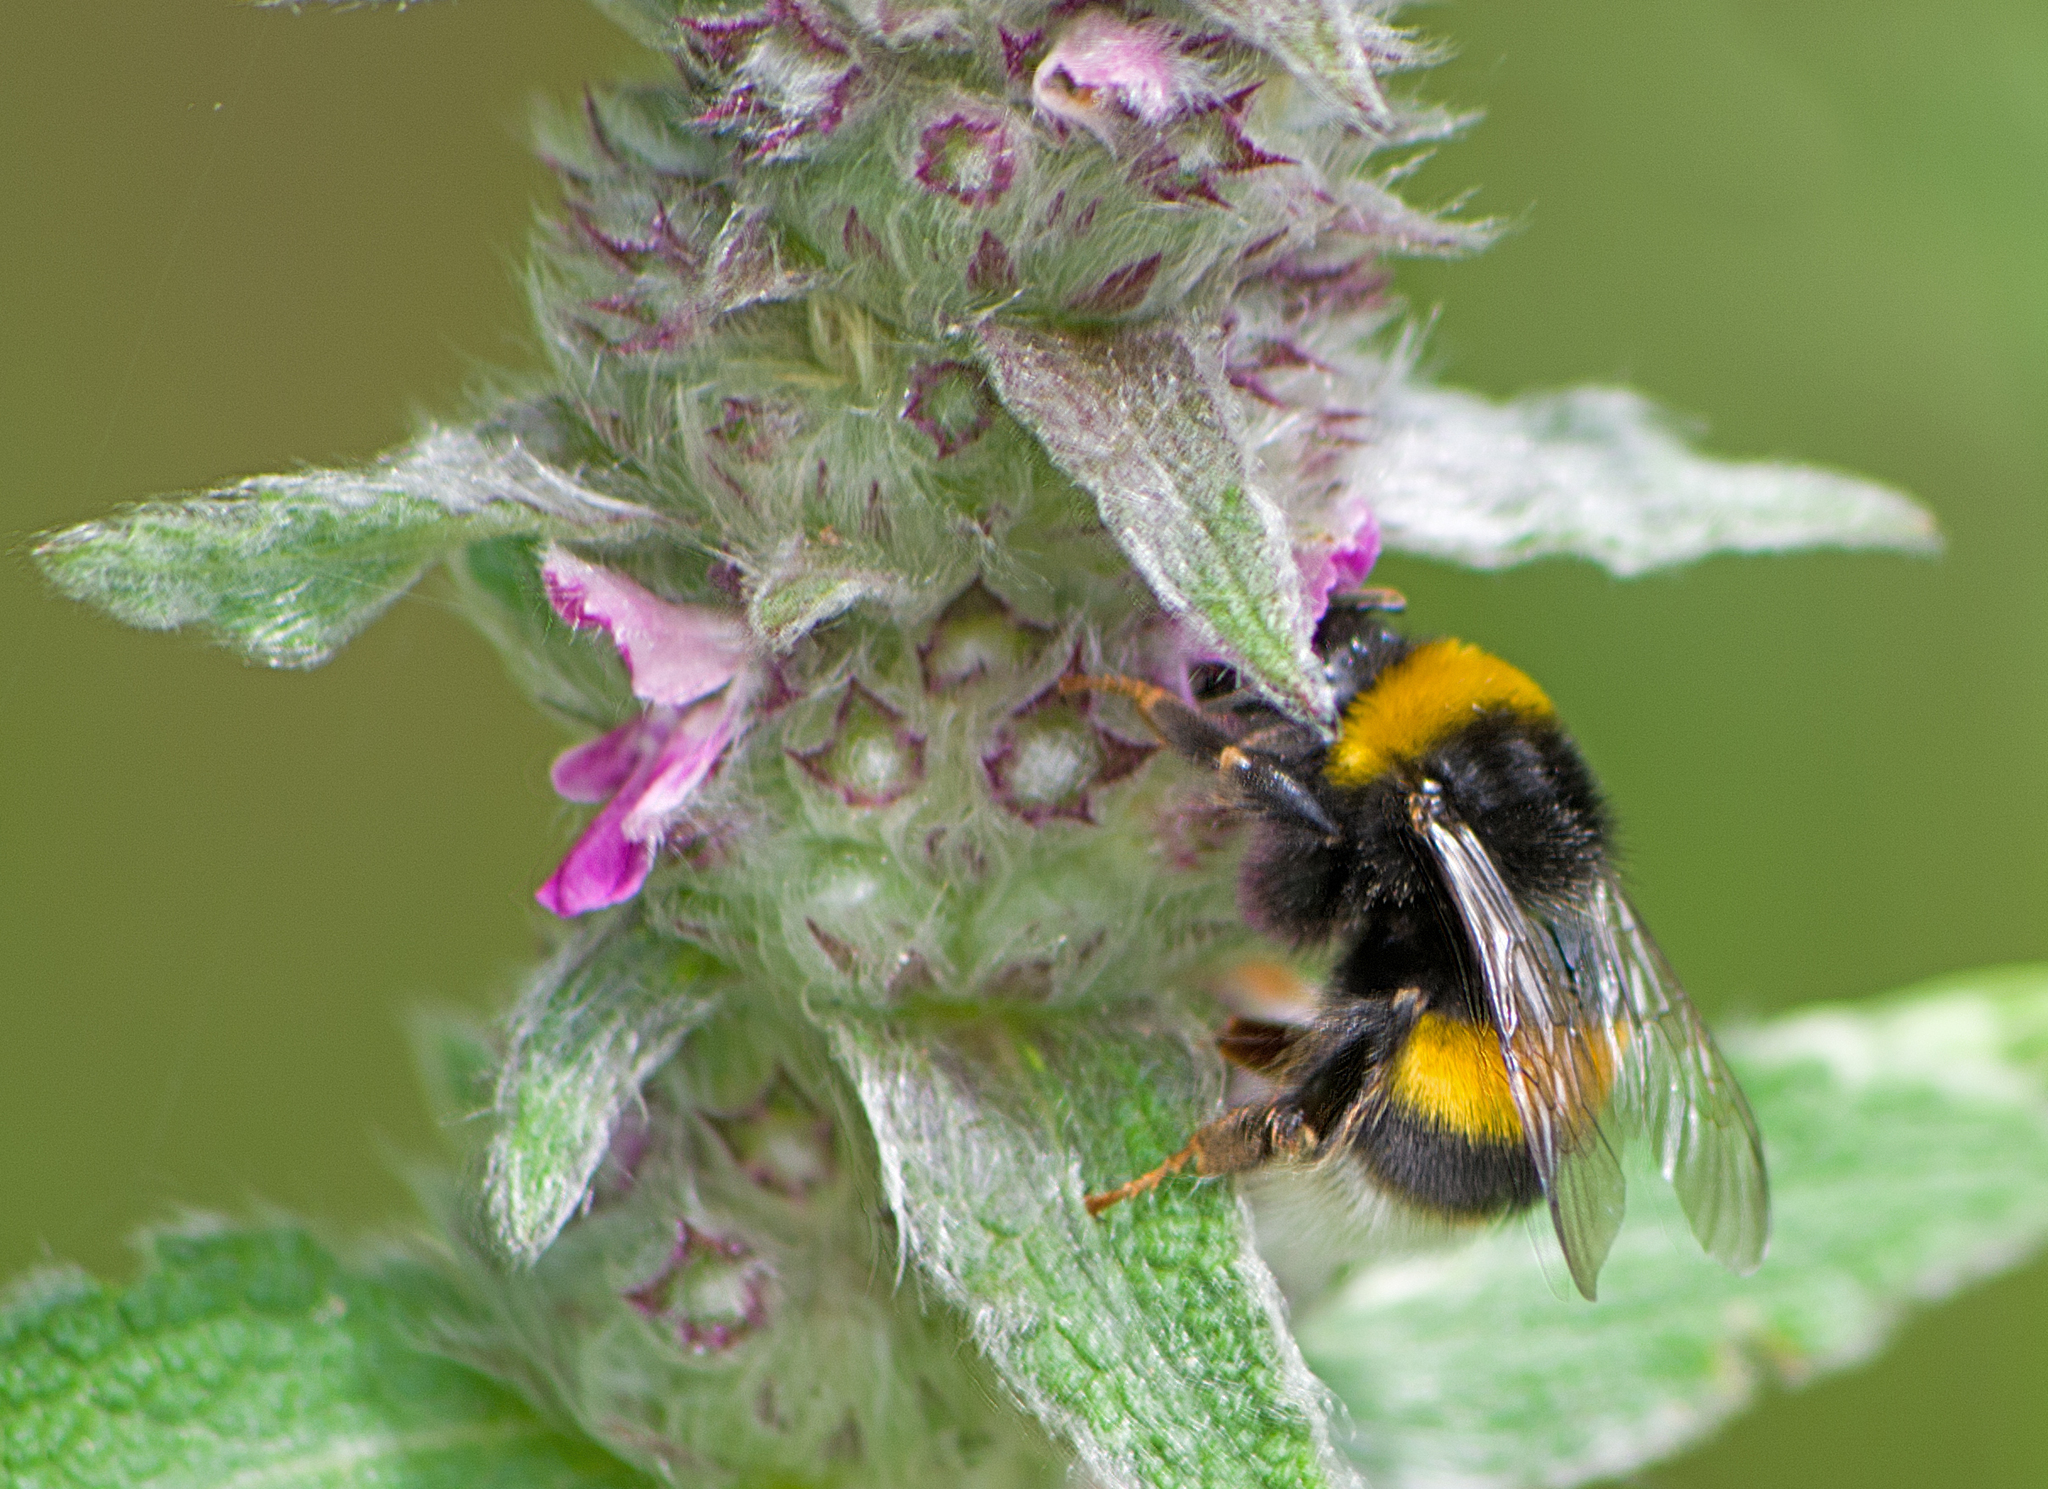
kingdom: Animalia
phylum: Arthropoda
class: Insecta
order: Hymenoptera
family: Apidae
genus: Bombus
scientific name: Bombus terrestris
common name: Buff-tailed bumblebee
